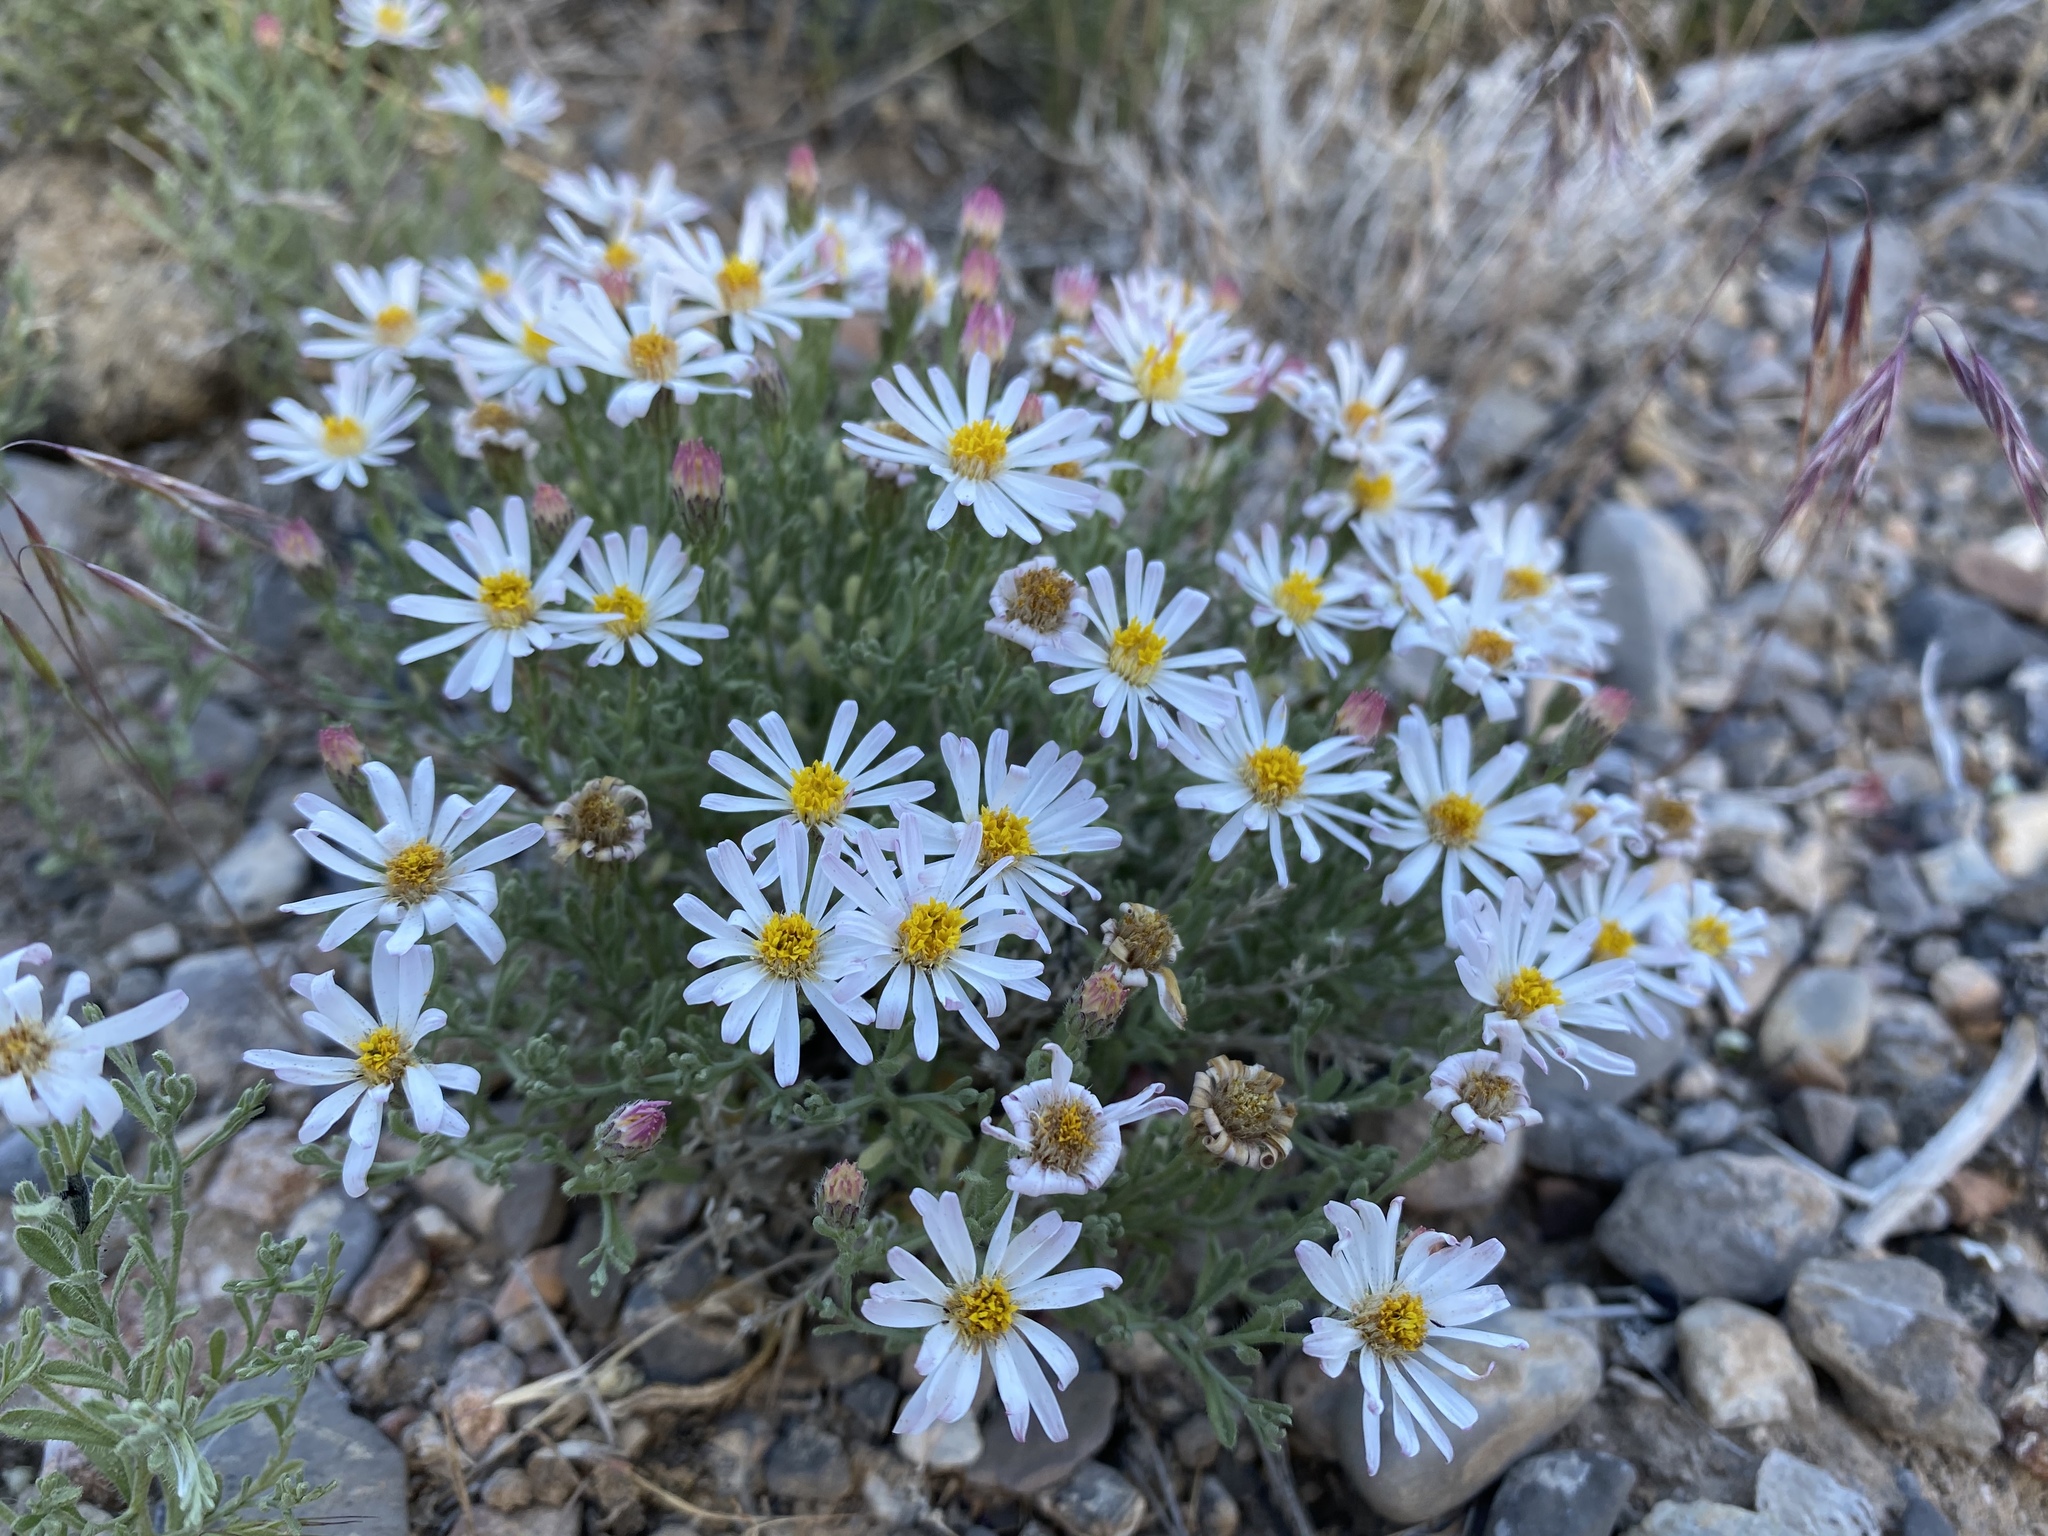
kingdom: Plantae
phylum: Tracheophyta
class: Magnoliopsida
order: Asterales
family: Asteraceae
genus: Chaetopappa
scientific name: Chaetopappa ericoides
